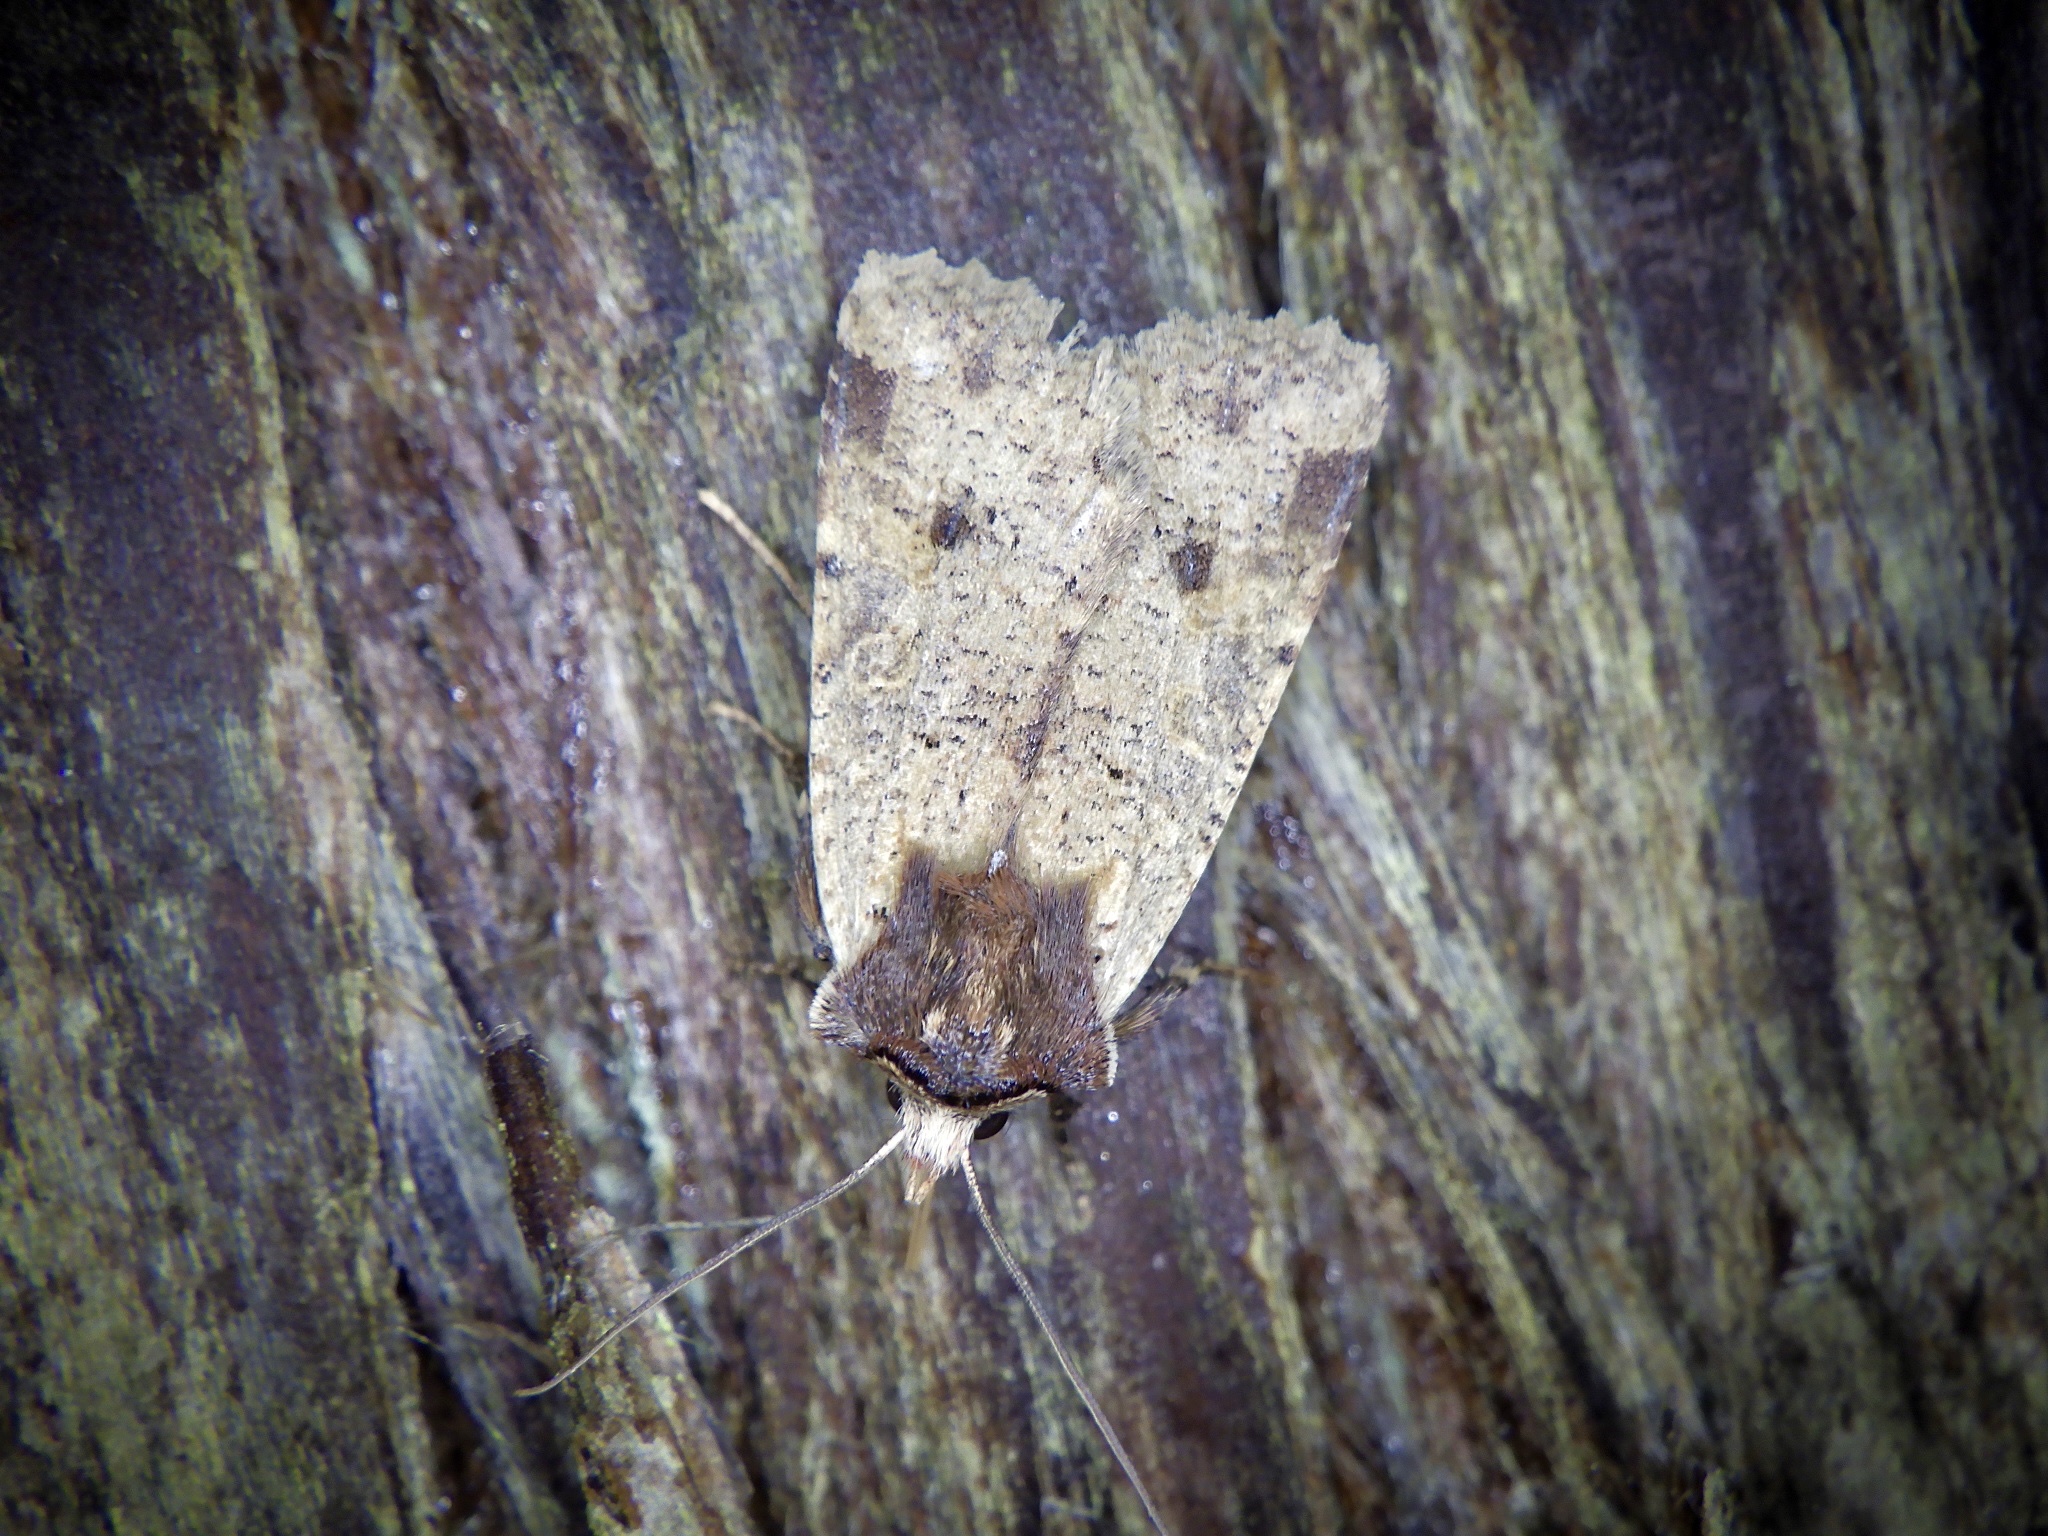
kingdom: Animalia
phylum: Arthropoda
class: Insecta
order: Lepidoptera
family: Noctuidae
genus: Rhynchaglaea
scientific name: Rhynchaglaea scitula
